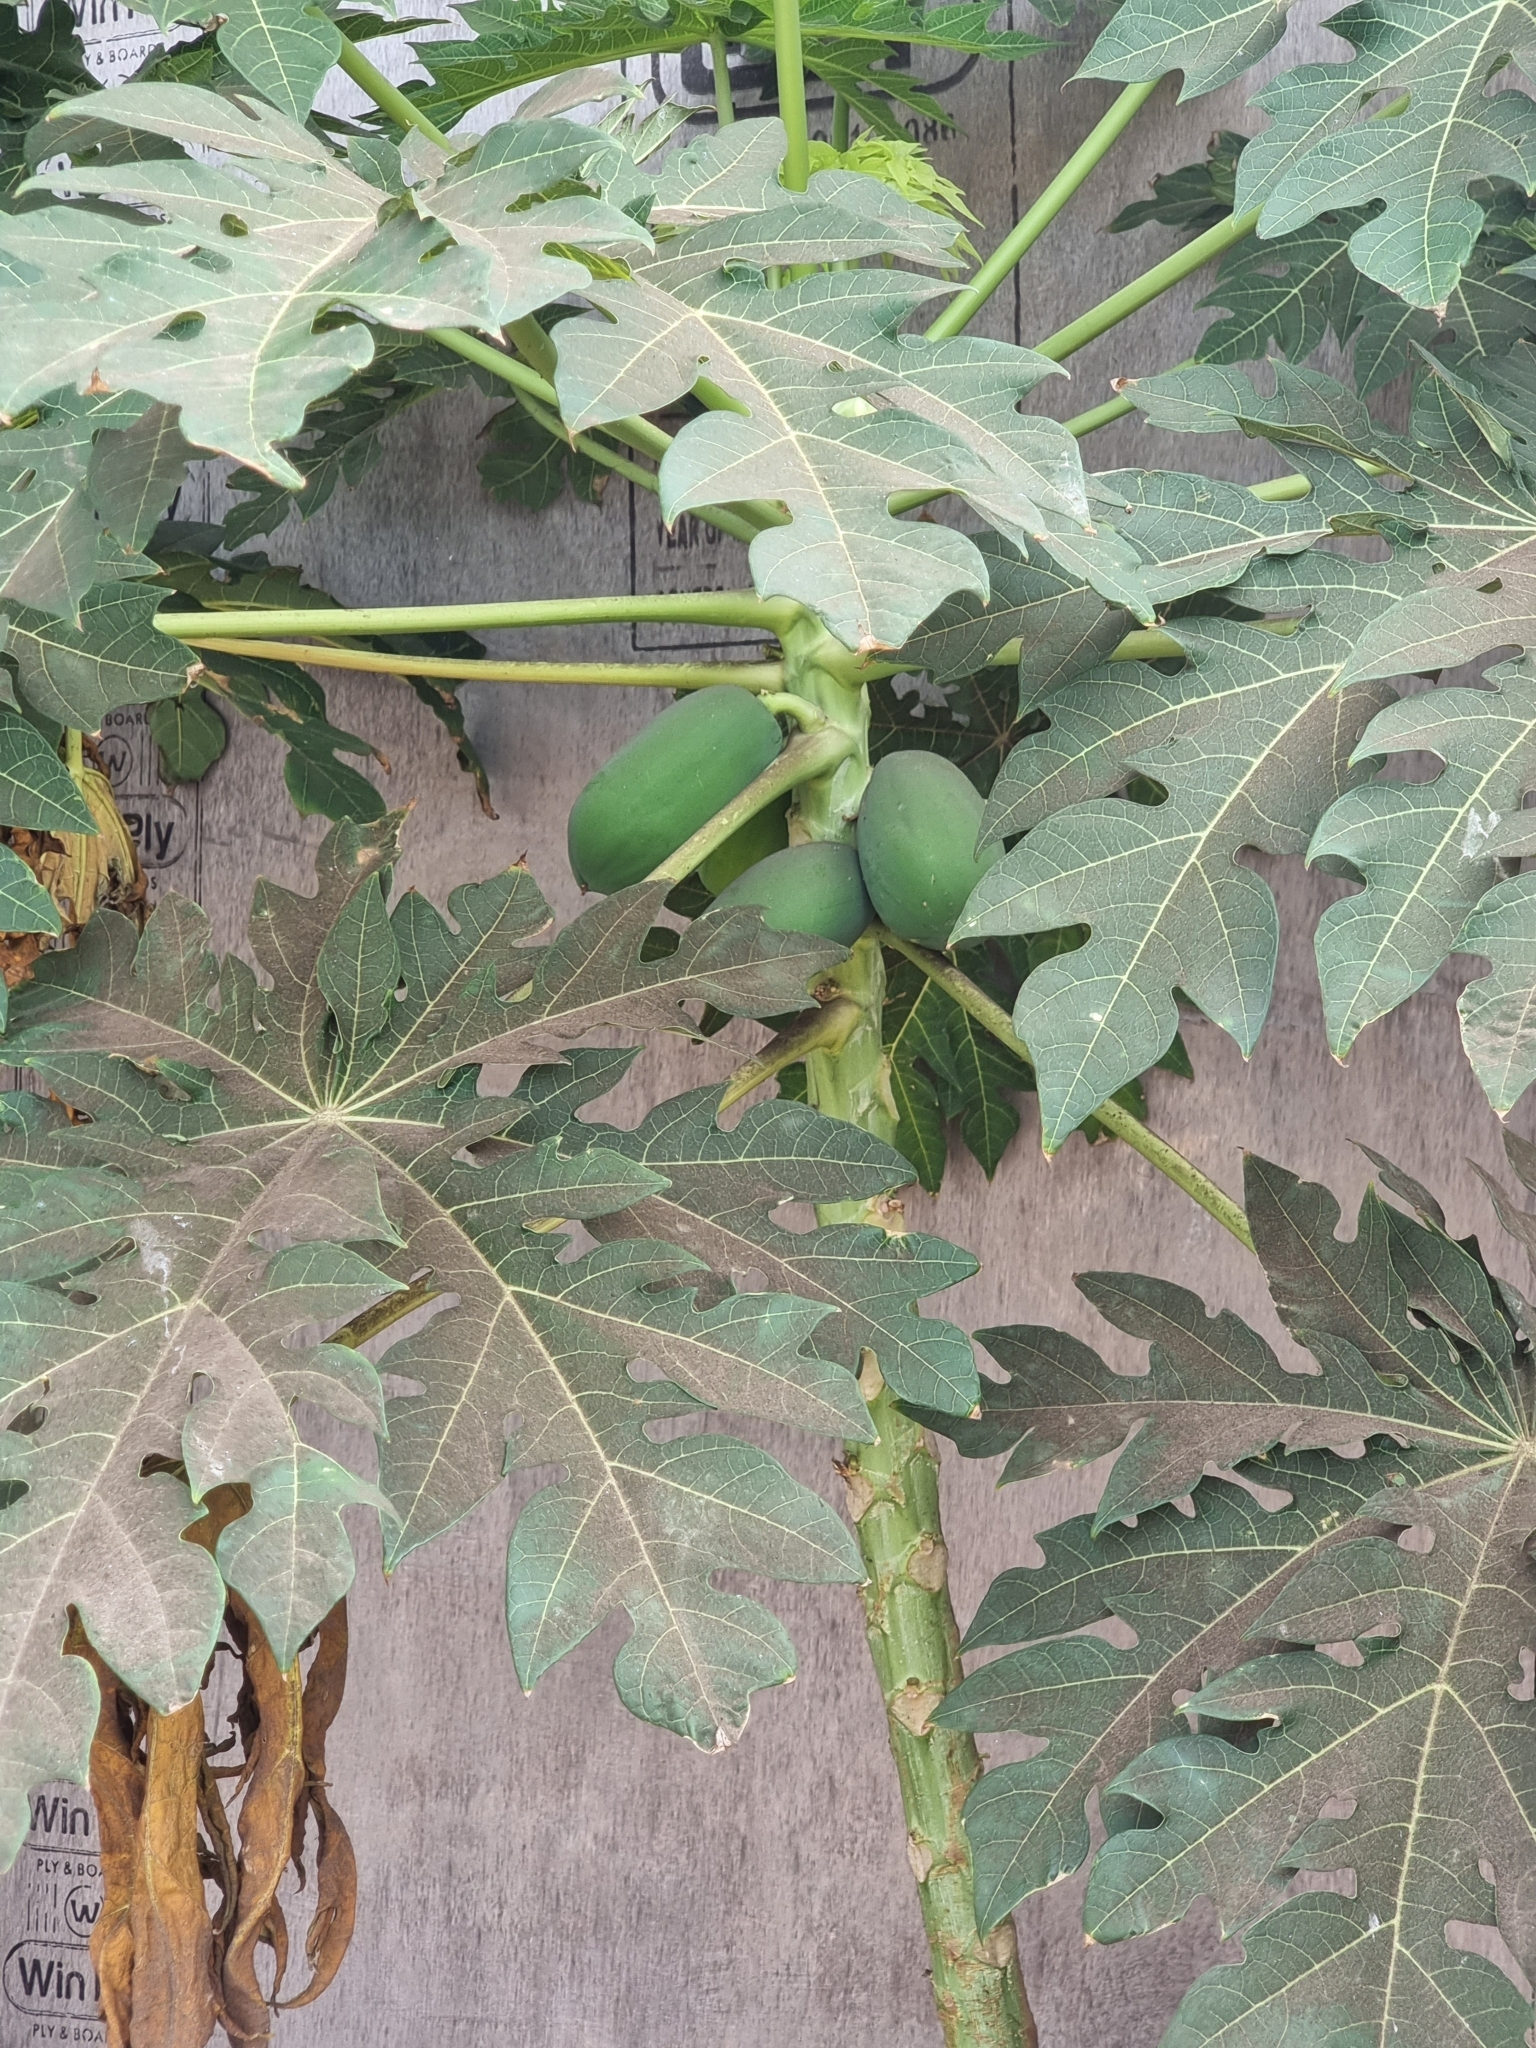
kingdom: Plantae
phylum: Tracheophyta
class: Magnoliopsida
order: Brassicales
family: Caricaceae
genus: Carica
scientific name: Carica papaya
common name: Papaya
